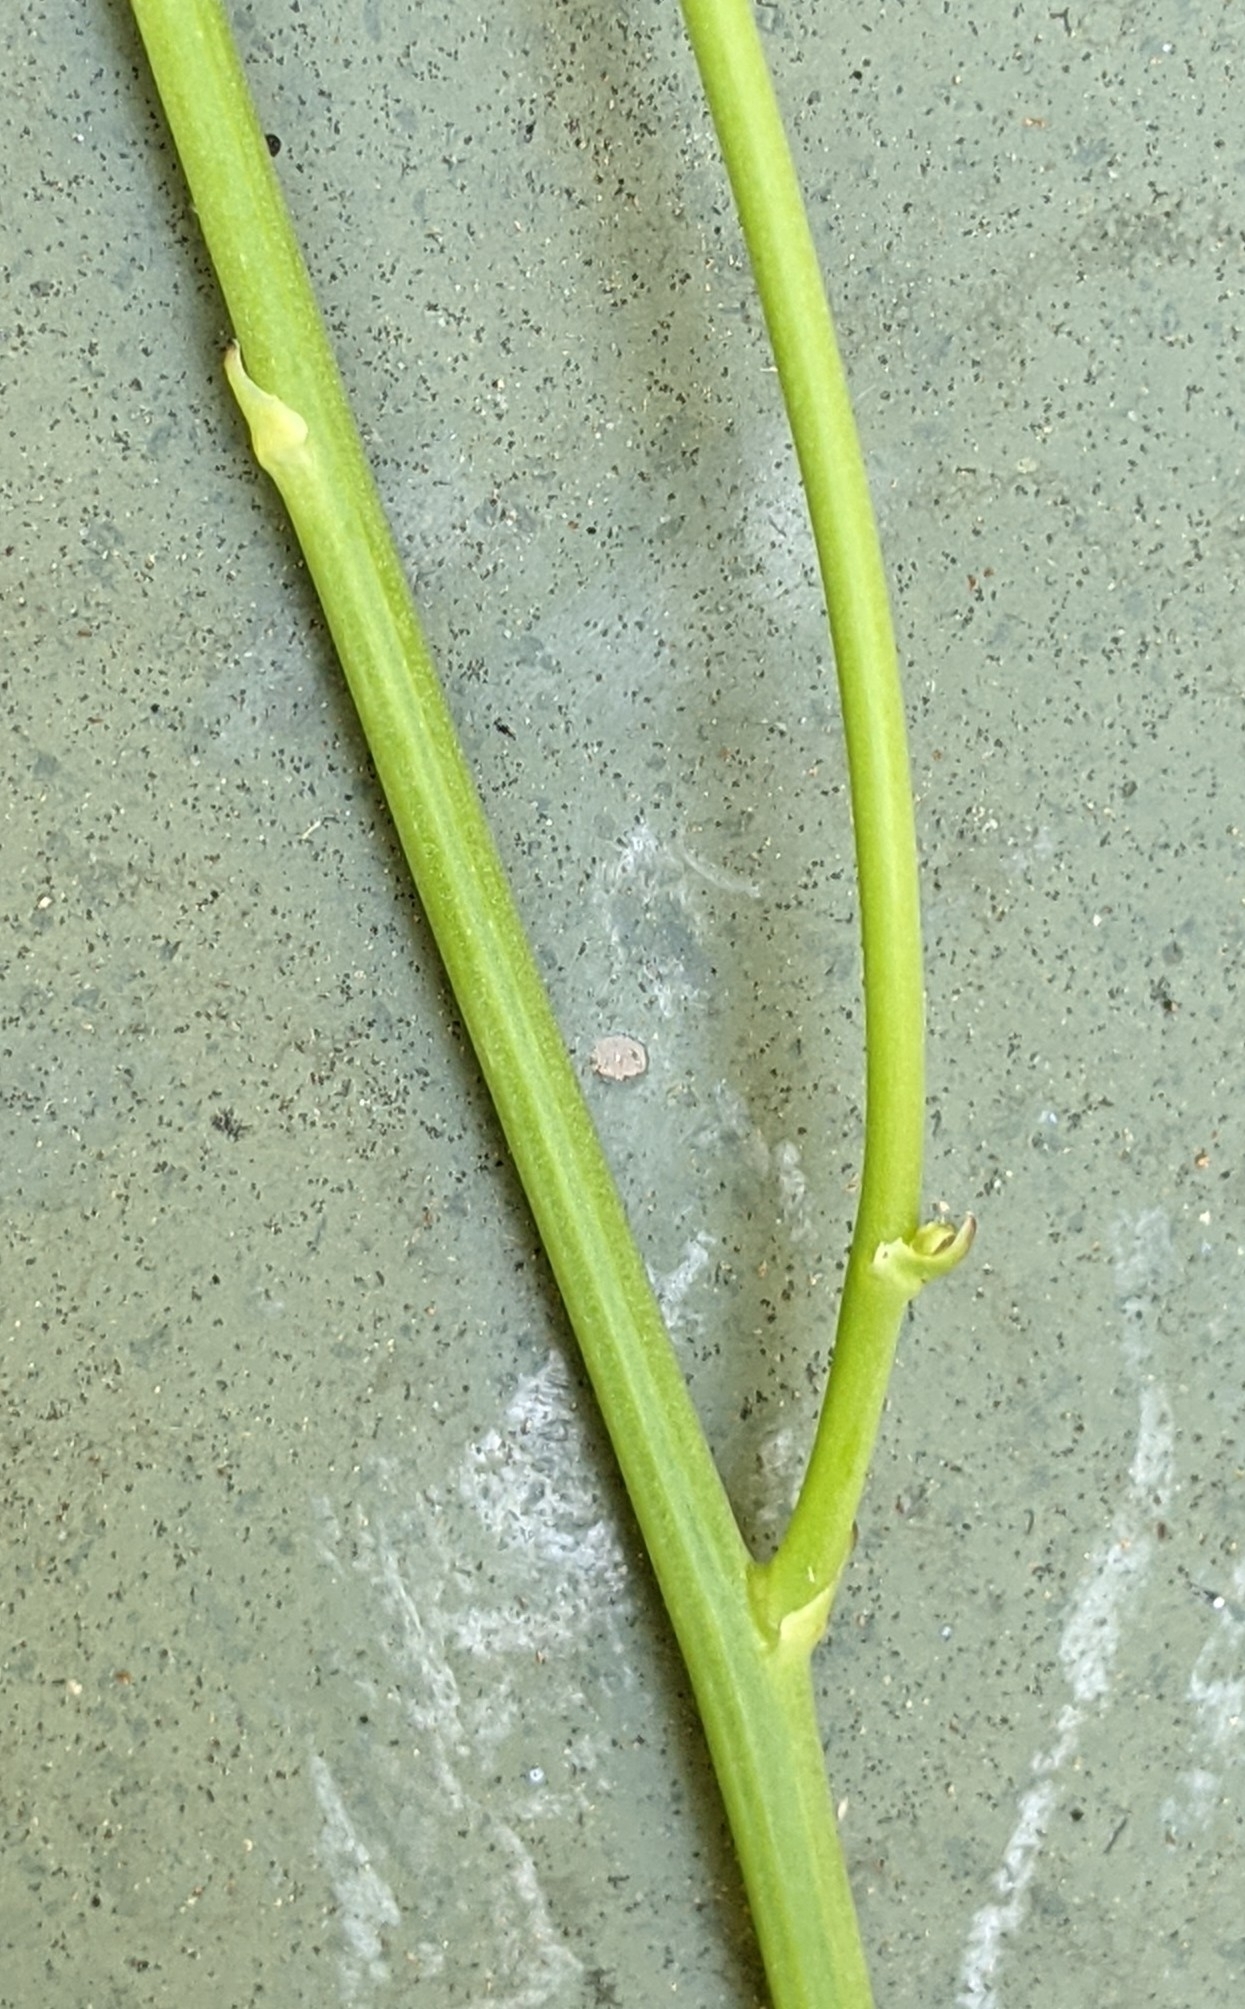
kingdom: Plantae
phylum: Tracheophyta
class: Magnoliopsida
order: Asterales
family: Asteraceae
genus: Hypochaeris
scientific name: Hypochaeris radicata
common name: Flatweed
